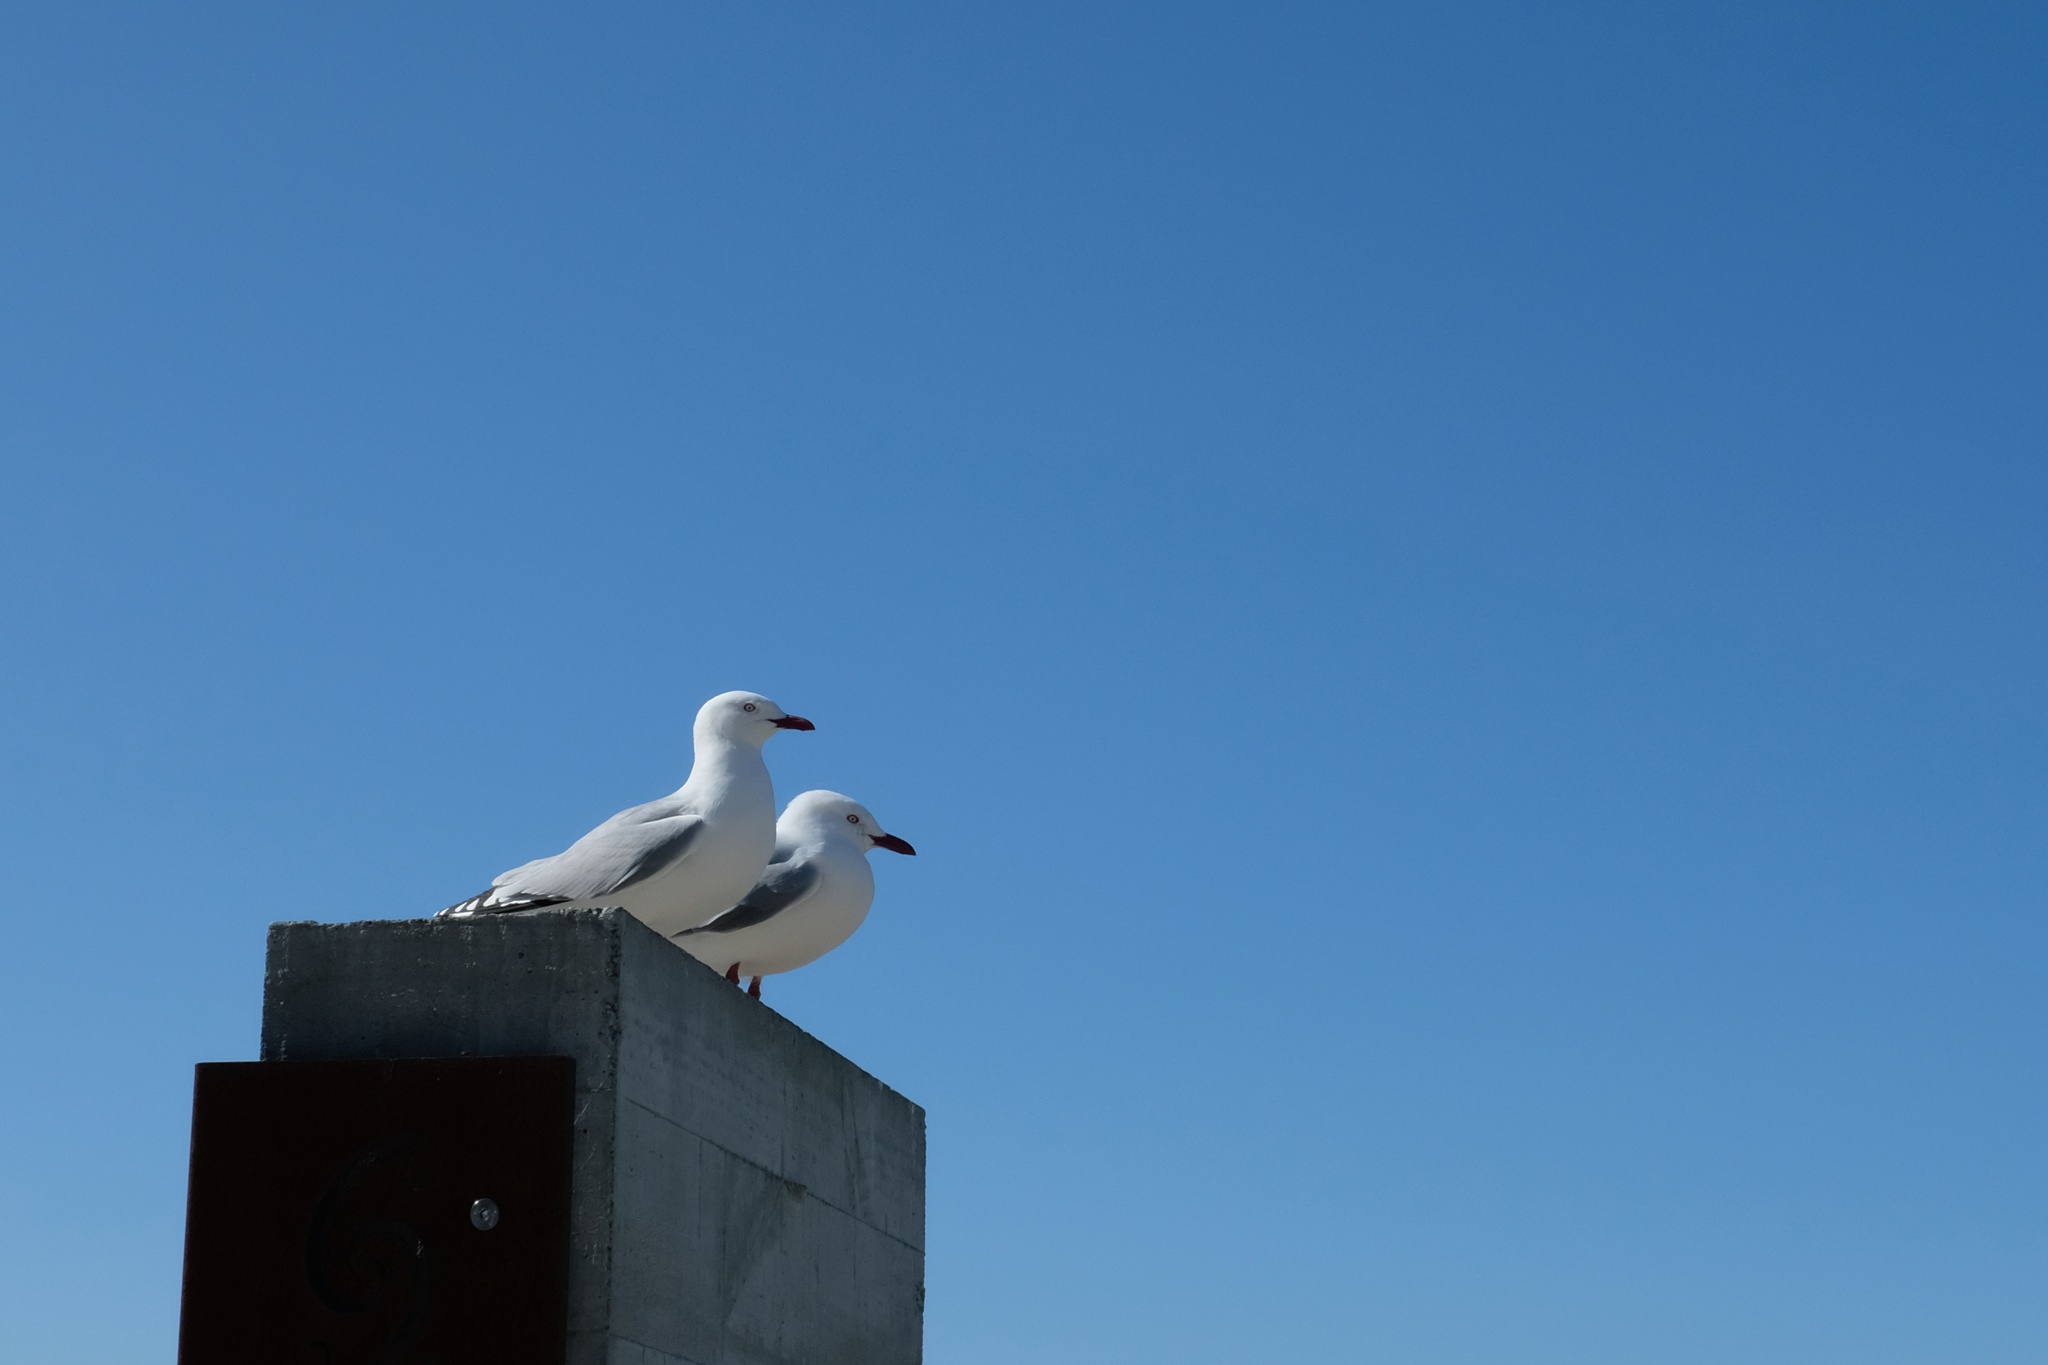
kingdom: Animalia
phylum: Chordata
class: Aves
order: Charadriiformes
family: Laridae
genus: Chroicocephalus
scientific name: Chroicocephalus novaehollandiae
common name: Silver gull
